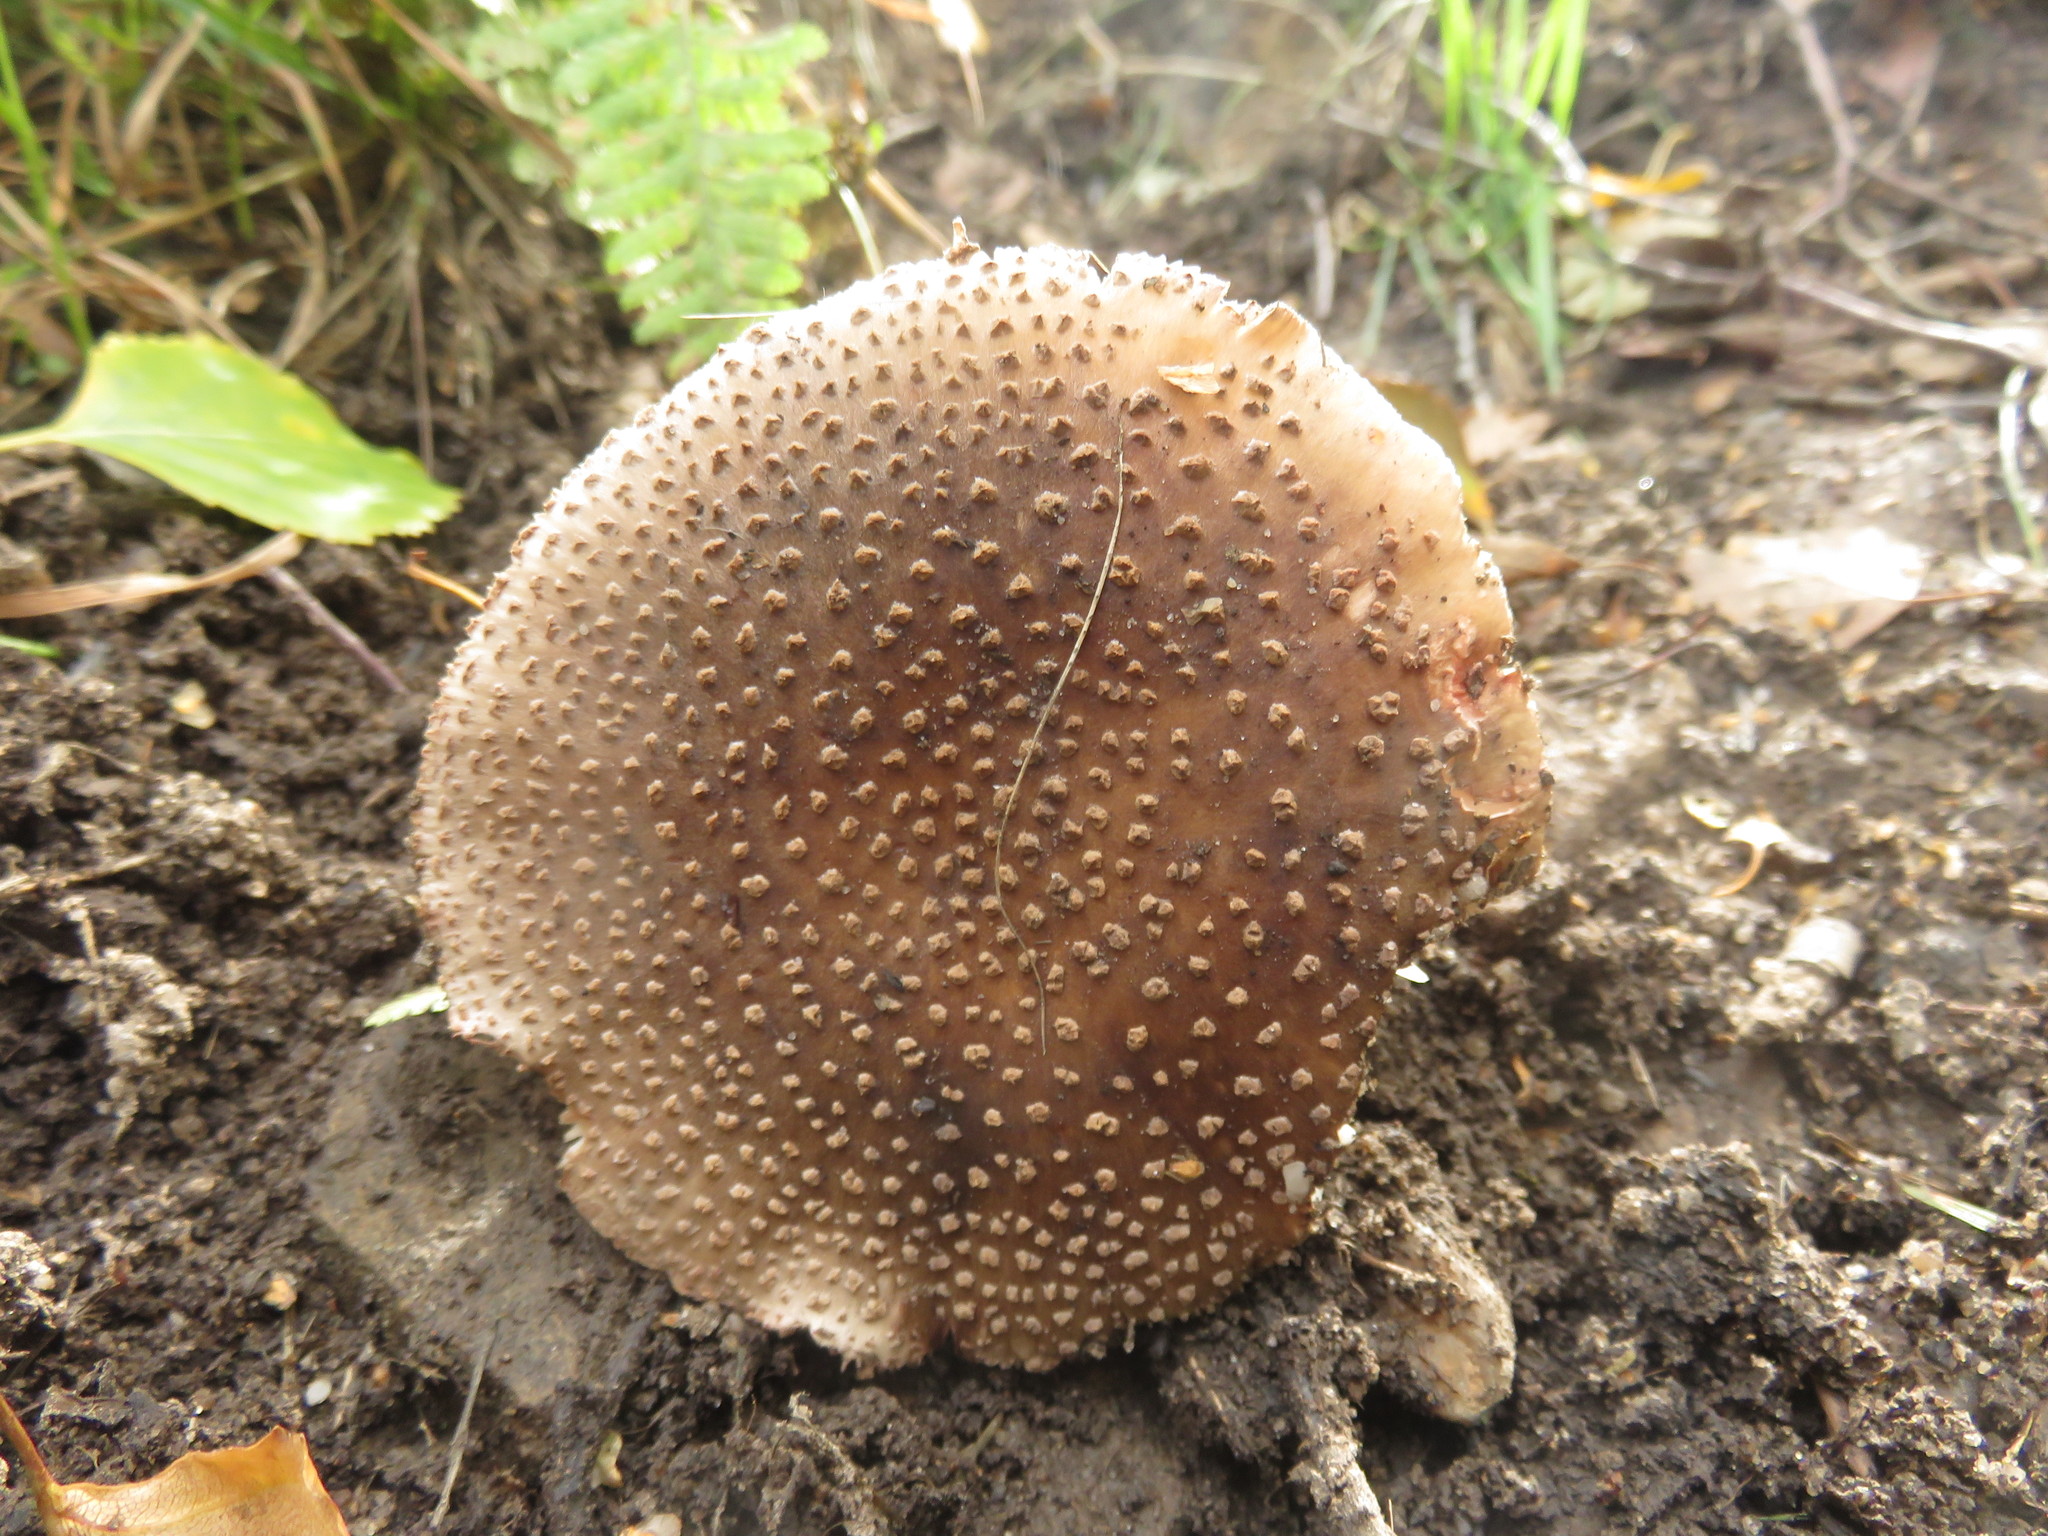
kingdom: Fungi
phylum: Basidiomycota
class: Agaricomycetes
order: Agaricales
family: Amanitaceae
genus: Amanita
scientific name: Amanita rubescens
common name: Blusher
